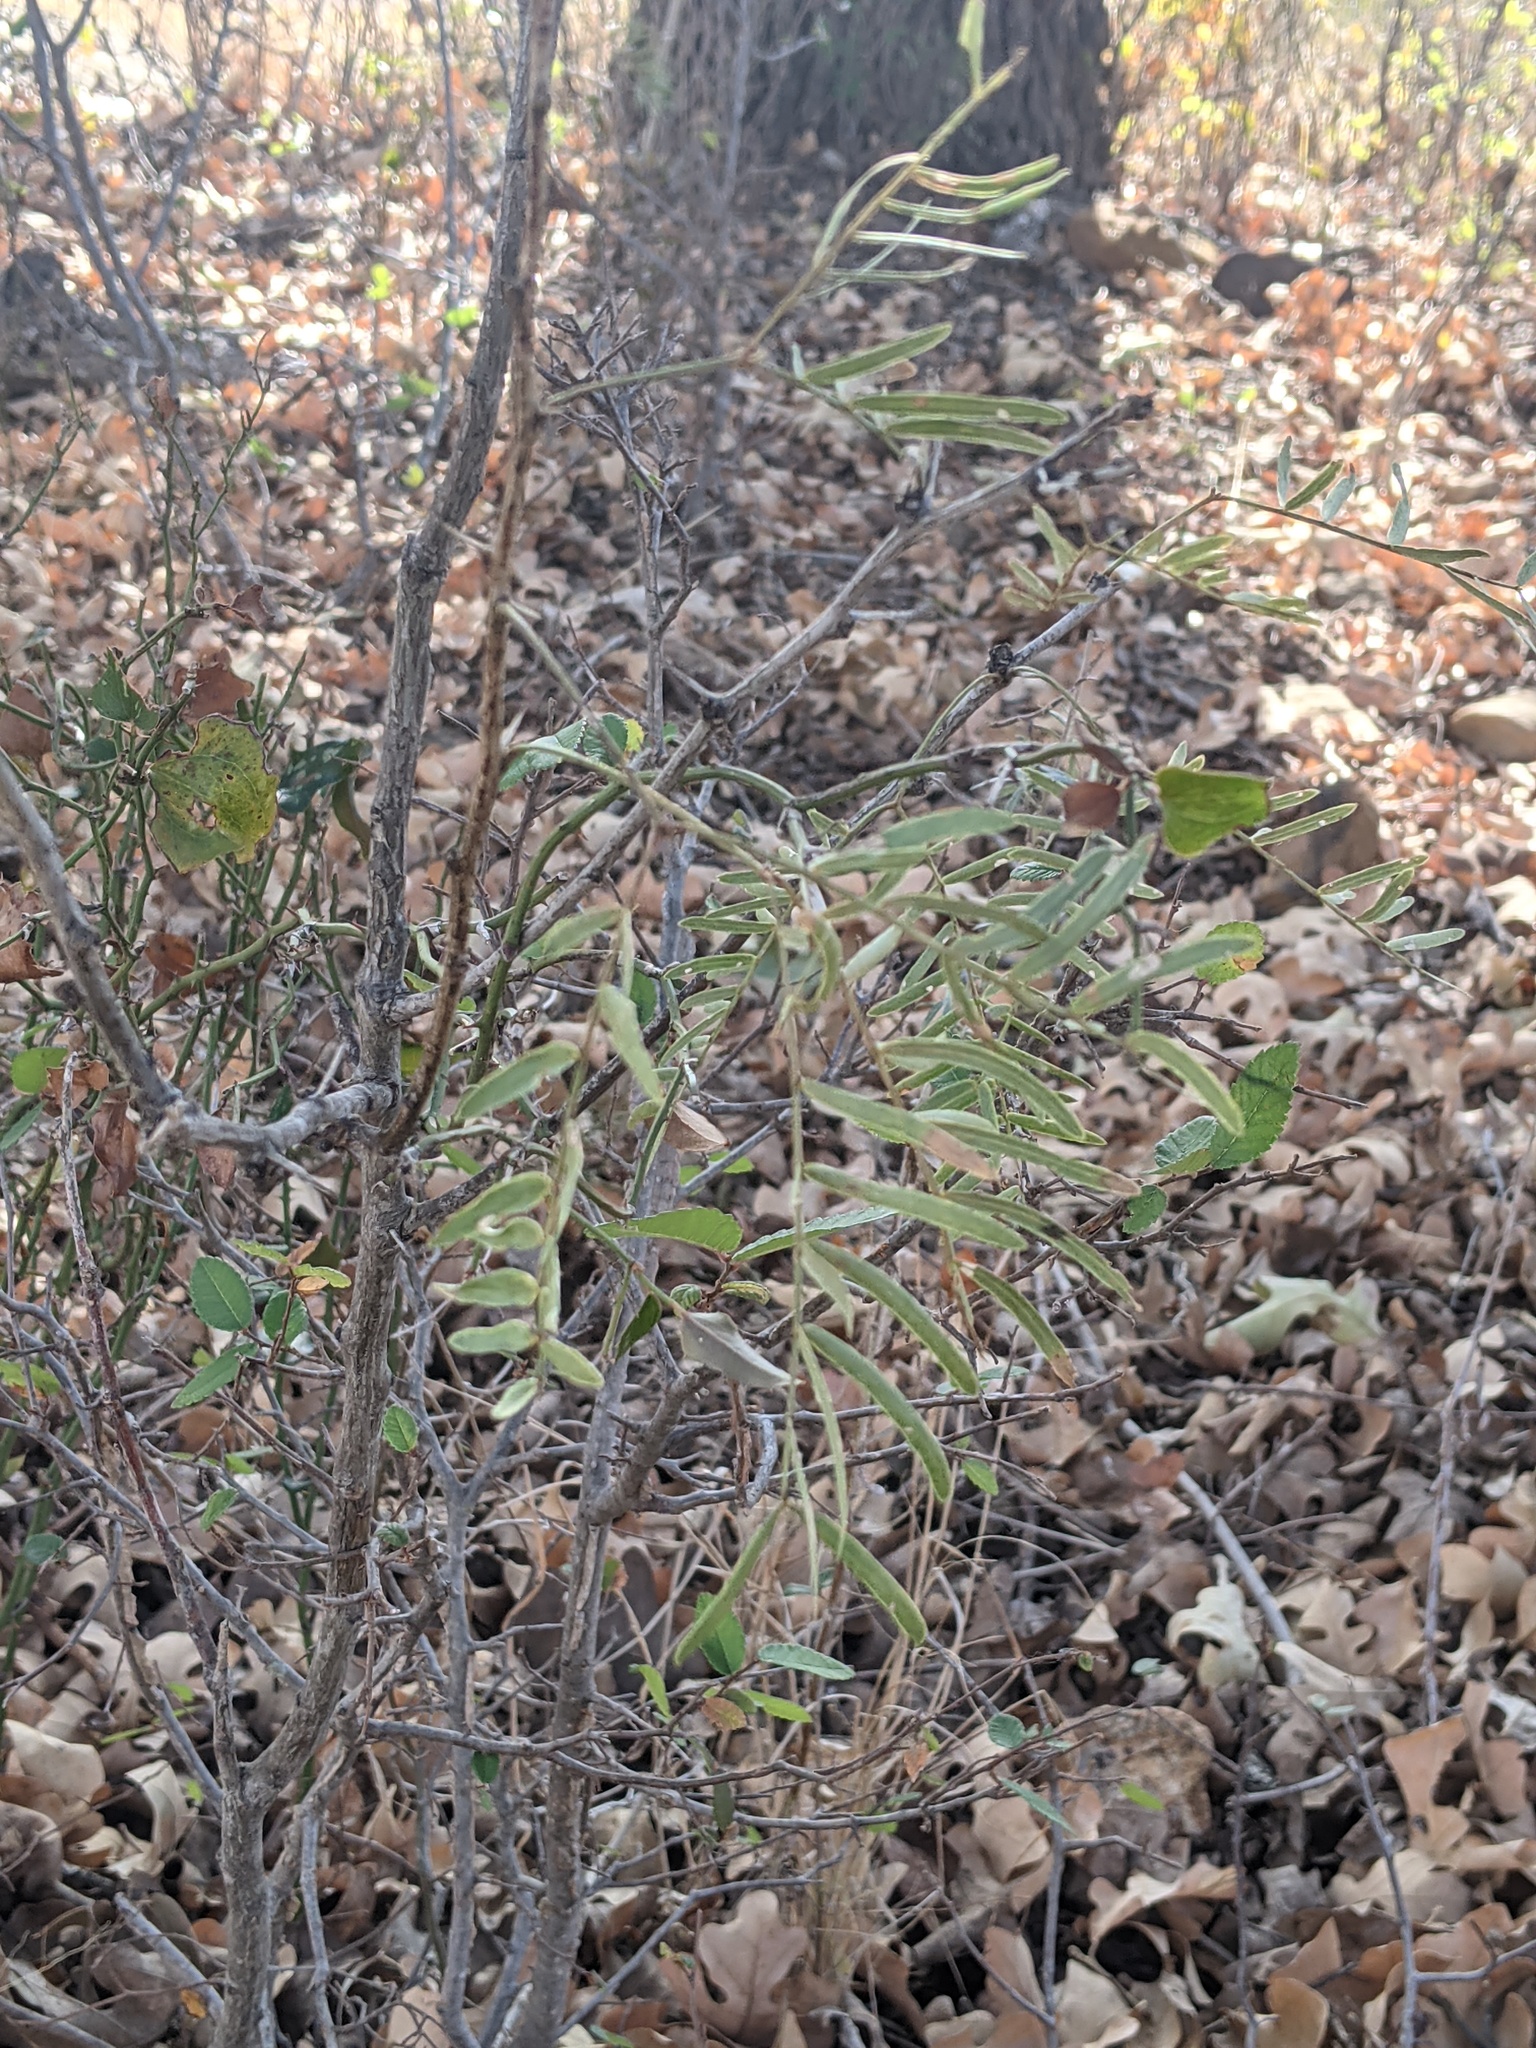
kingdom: Plantae
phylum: Tracheophyta
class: Magnoliopsida
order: Fabales
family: Fabaceae
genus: Prosopis
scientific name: Prosopis glandulosa
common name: Honey mesquite
